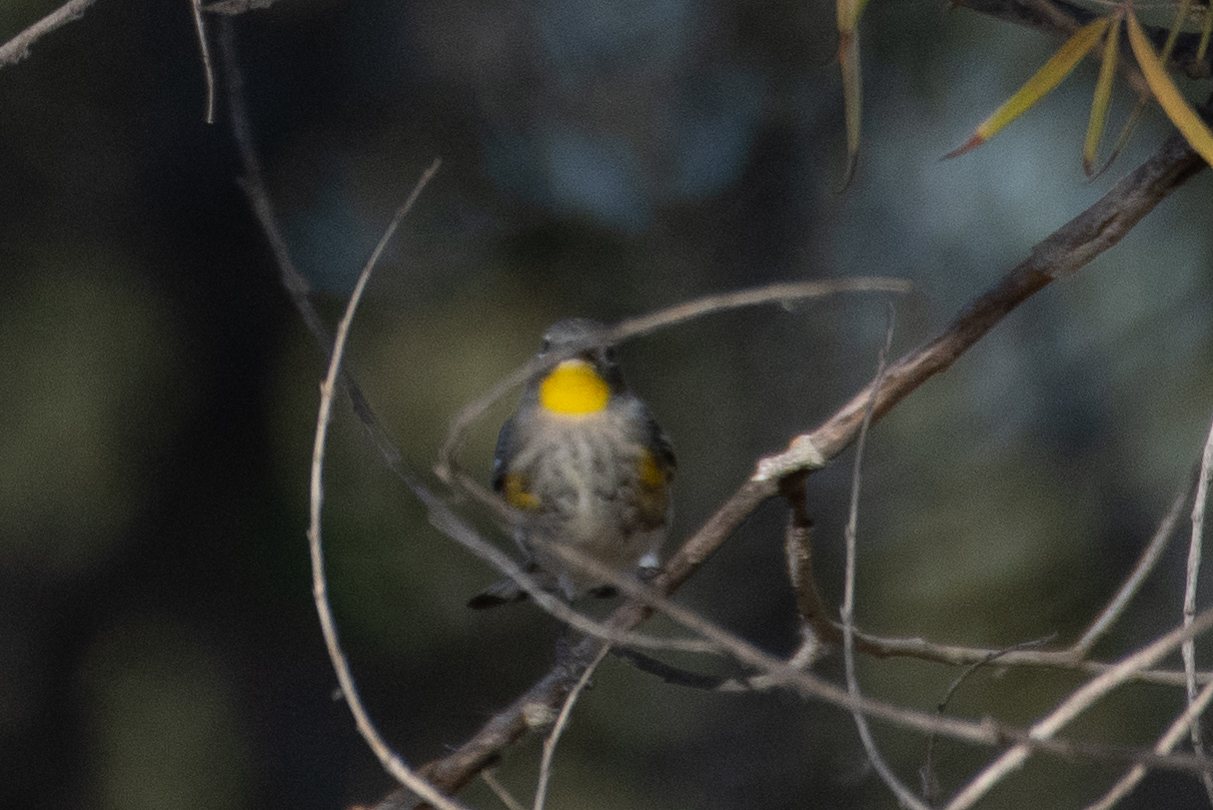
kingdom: Animalia
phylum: Chordata
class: Aves
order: Passeriformes
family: Parulidae
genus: Setophaga
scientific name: Setophaga coronata
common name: Myrtle warbler
